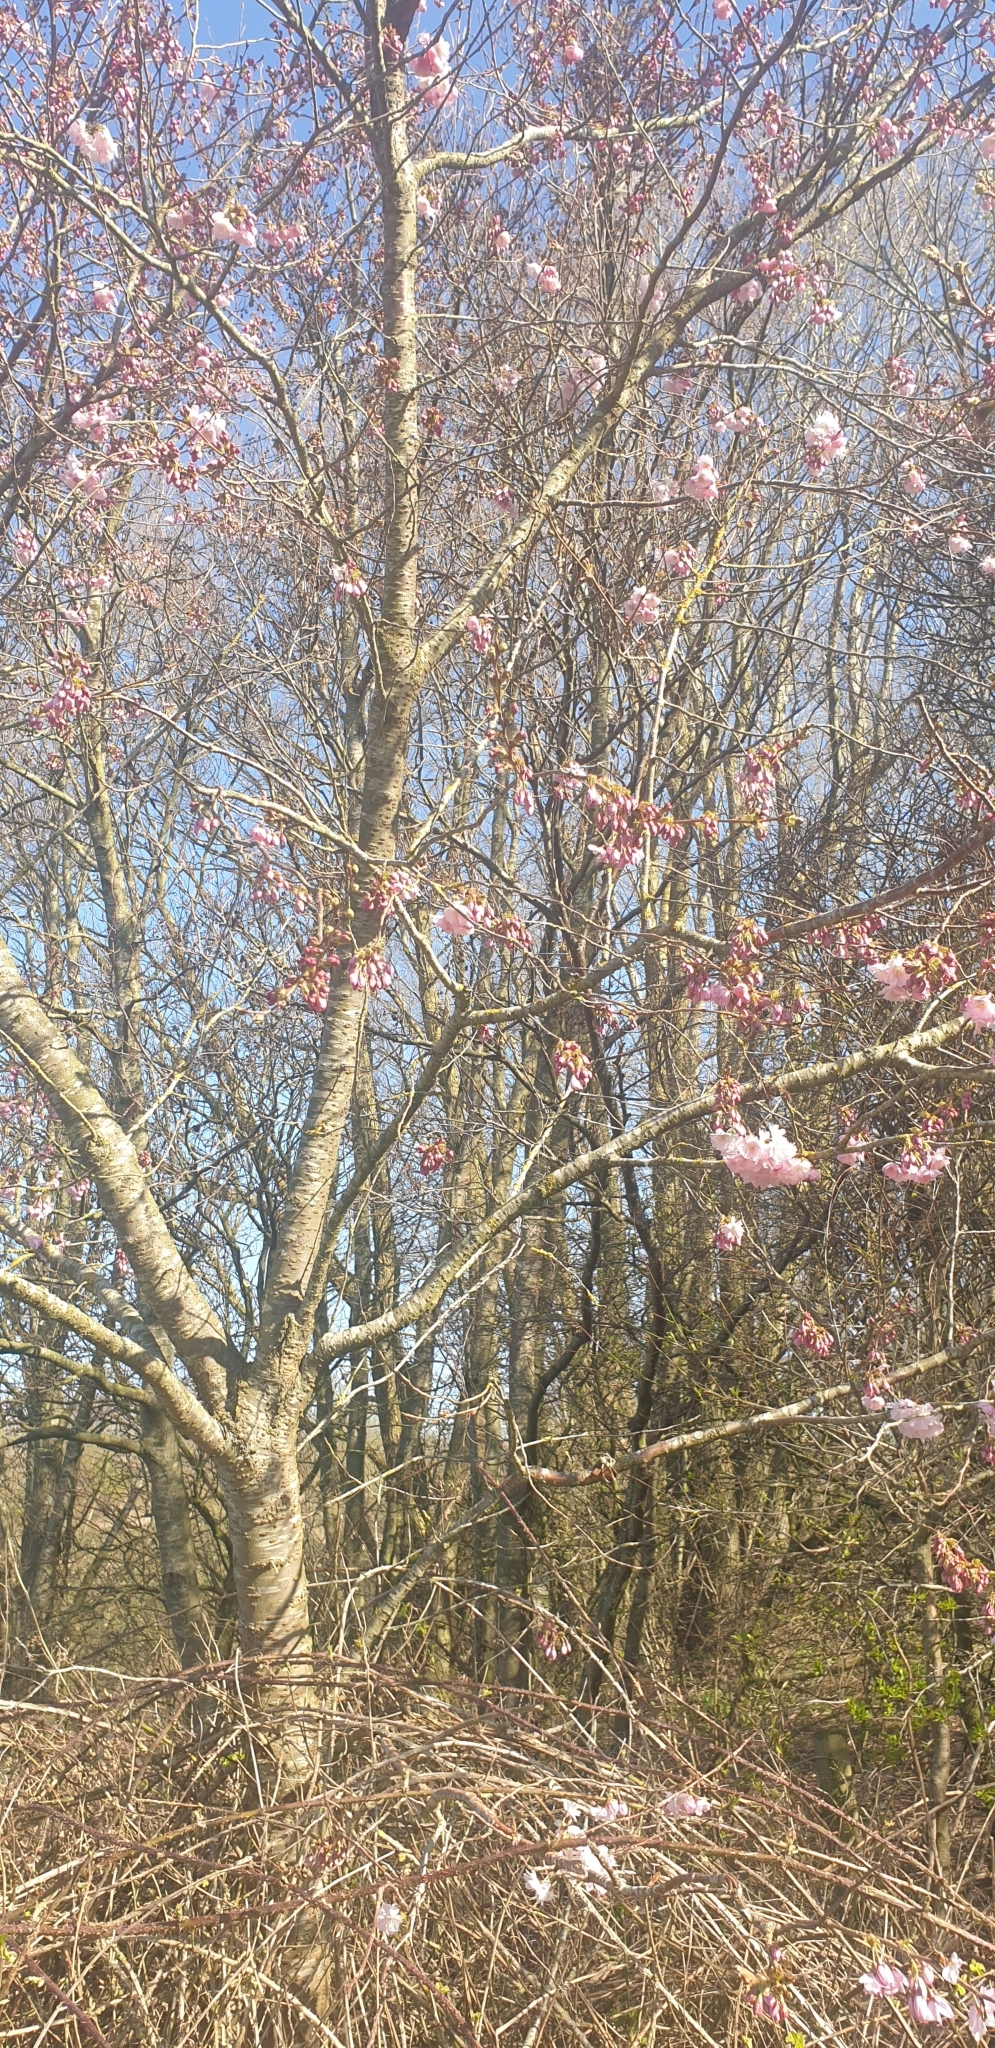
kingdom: Plantae
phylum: Tracheophyta
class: Magnoliopsida
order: Rosales
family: Rosaceae
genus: Prunus
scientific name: Prunus serrulata
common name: Japanese cherry
